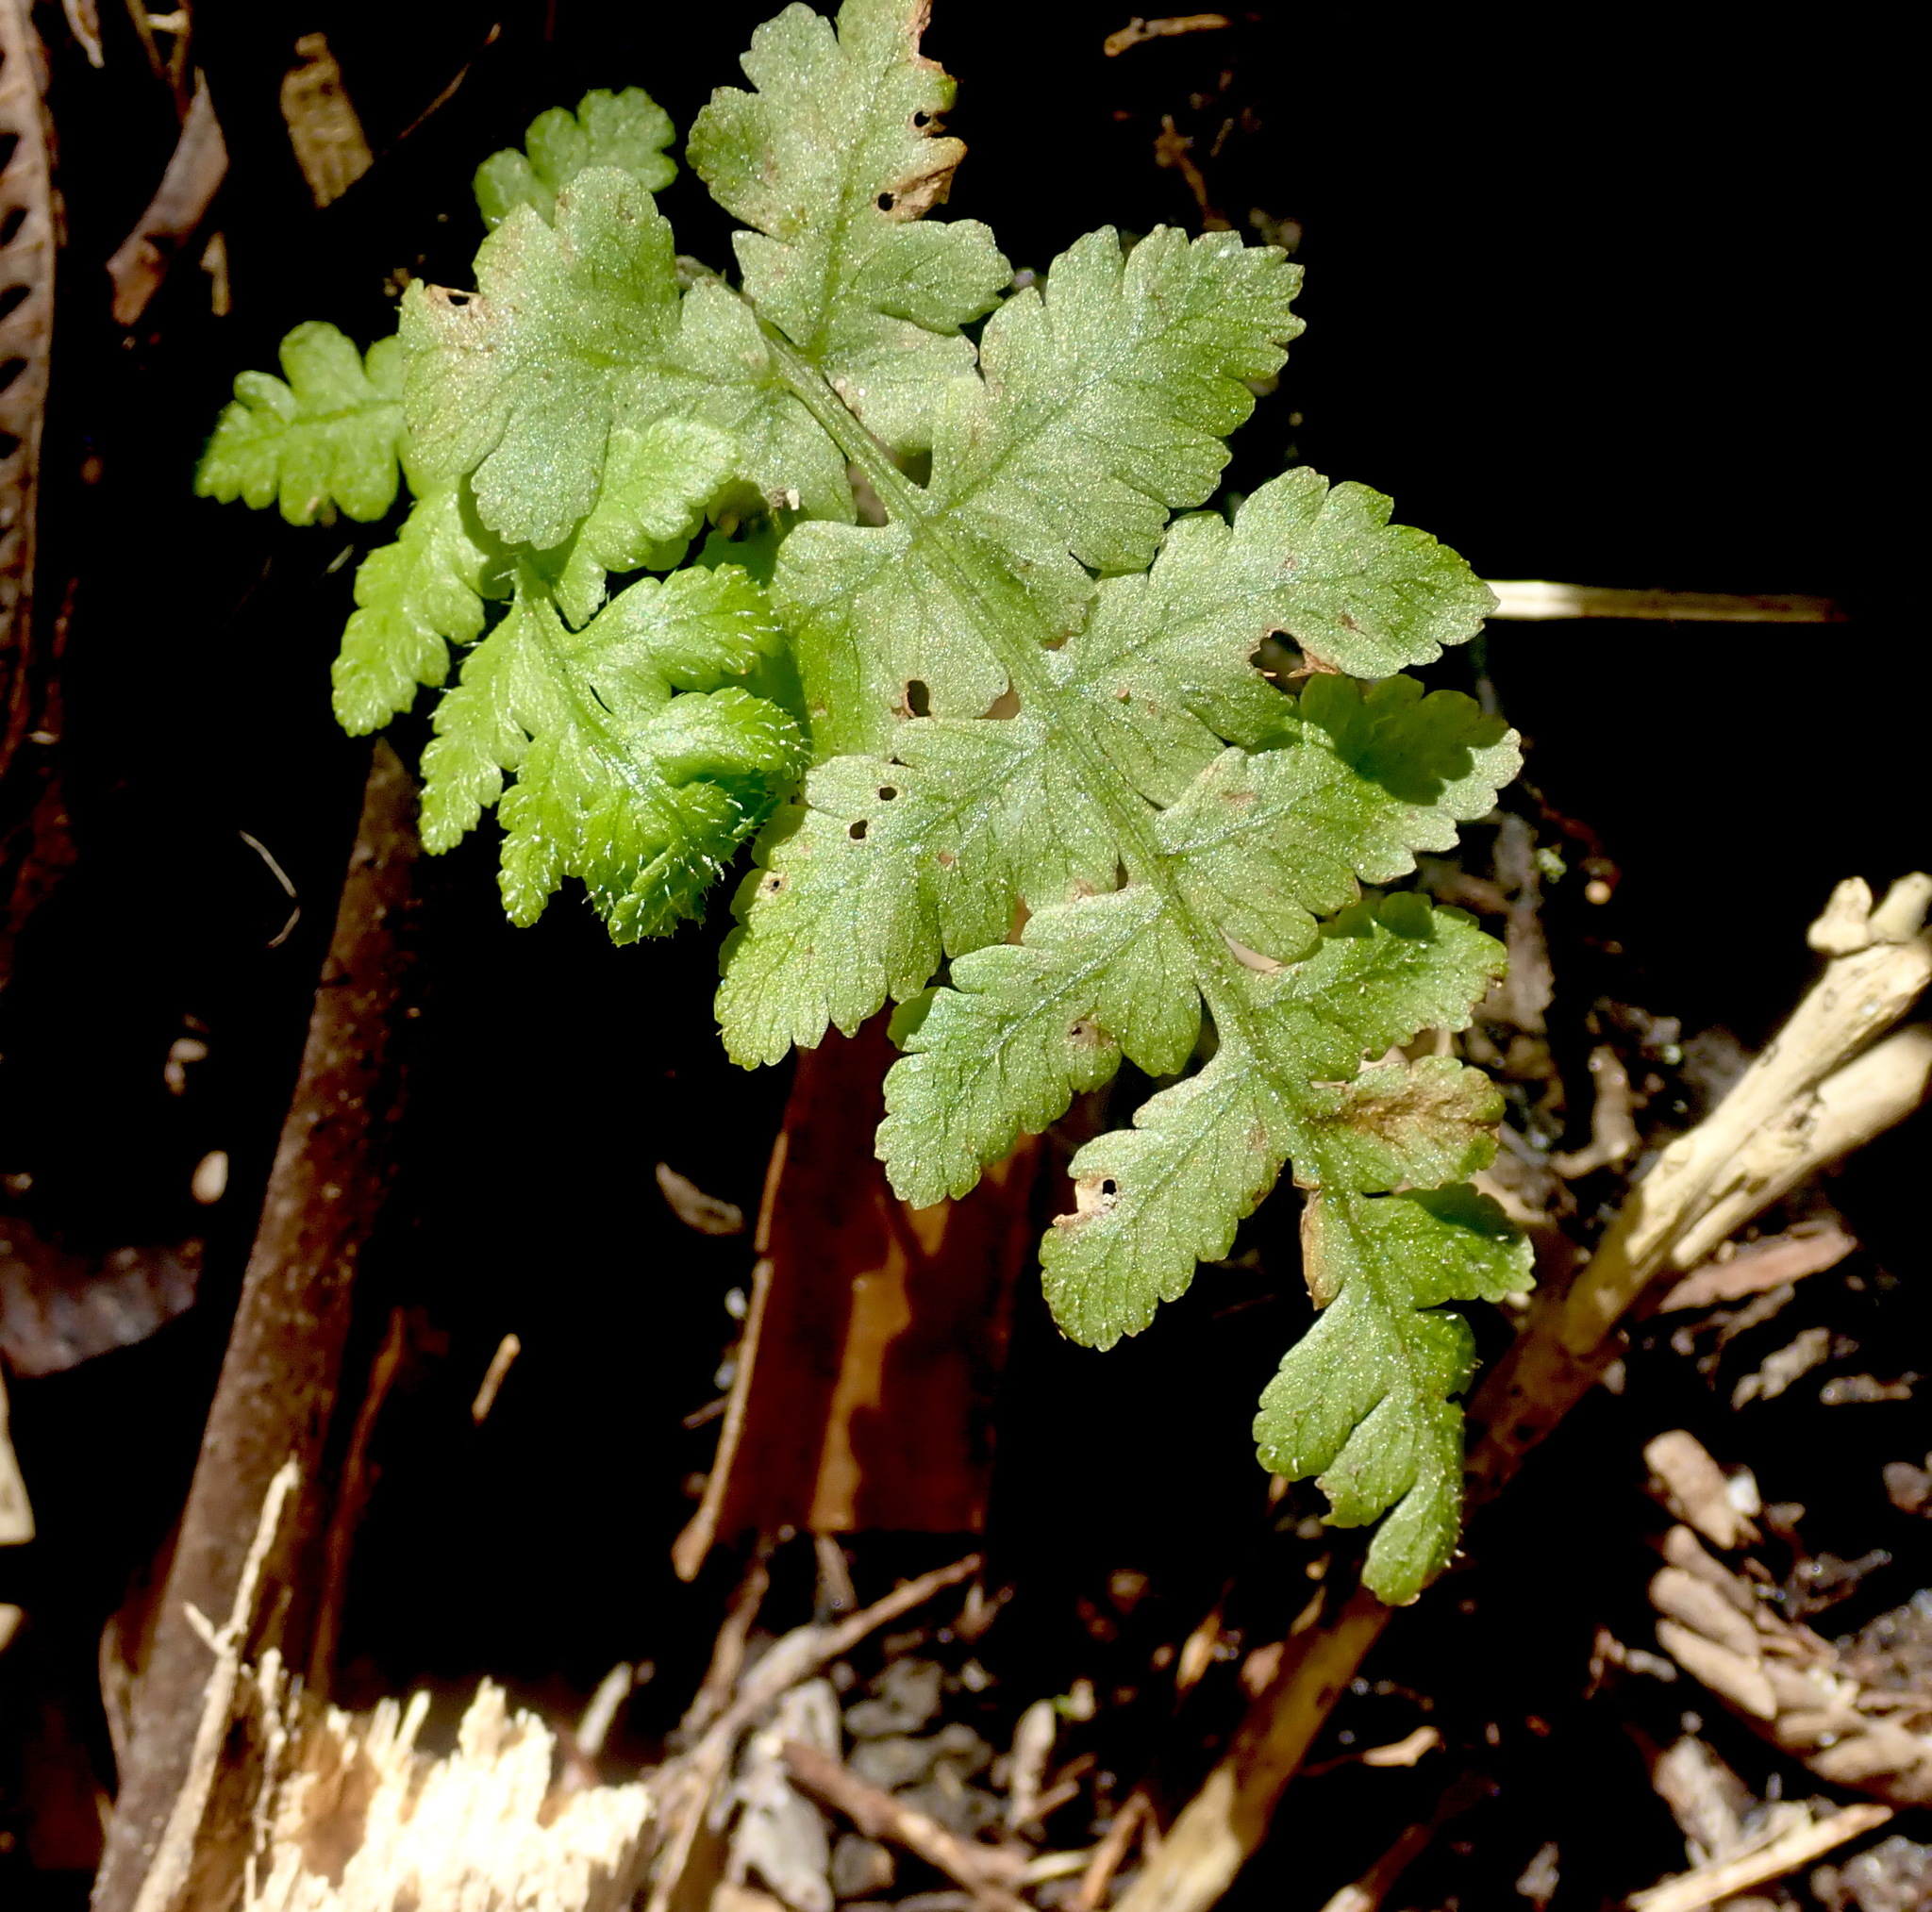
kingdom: Plantae
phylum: Tracheophyta
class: Polypodiopsida
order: Polypodiales
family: Athyriaceae
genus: Deparia
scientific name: Deparia petersenii
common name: Japanese false spleenwort
